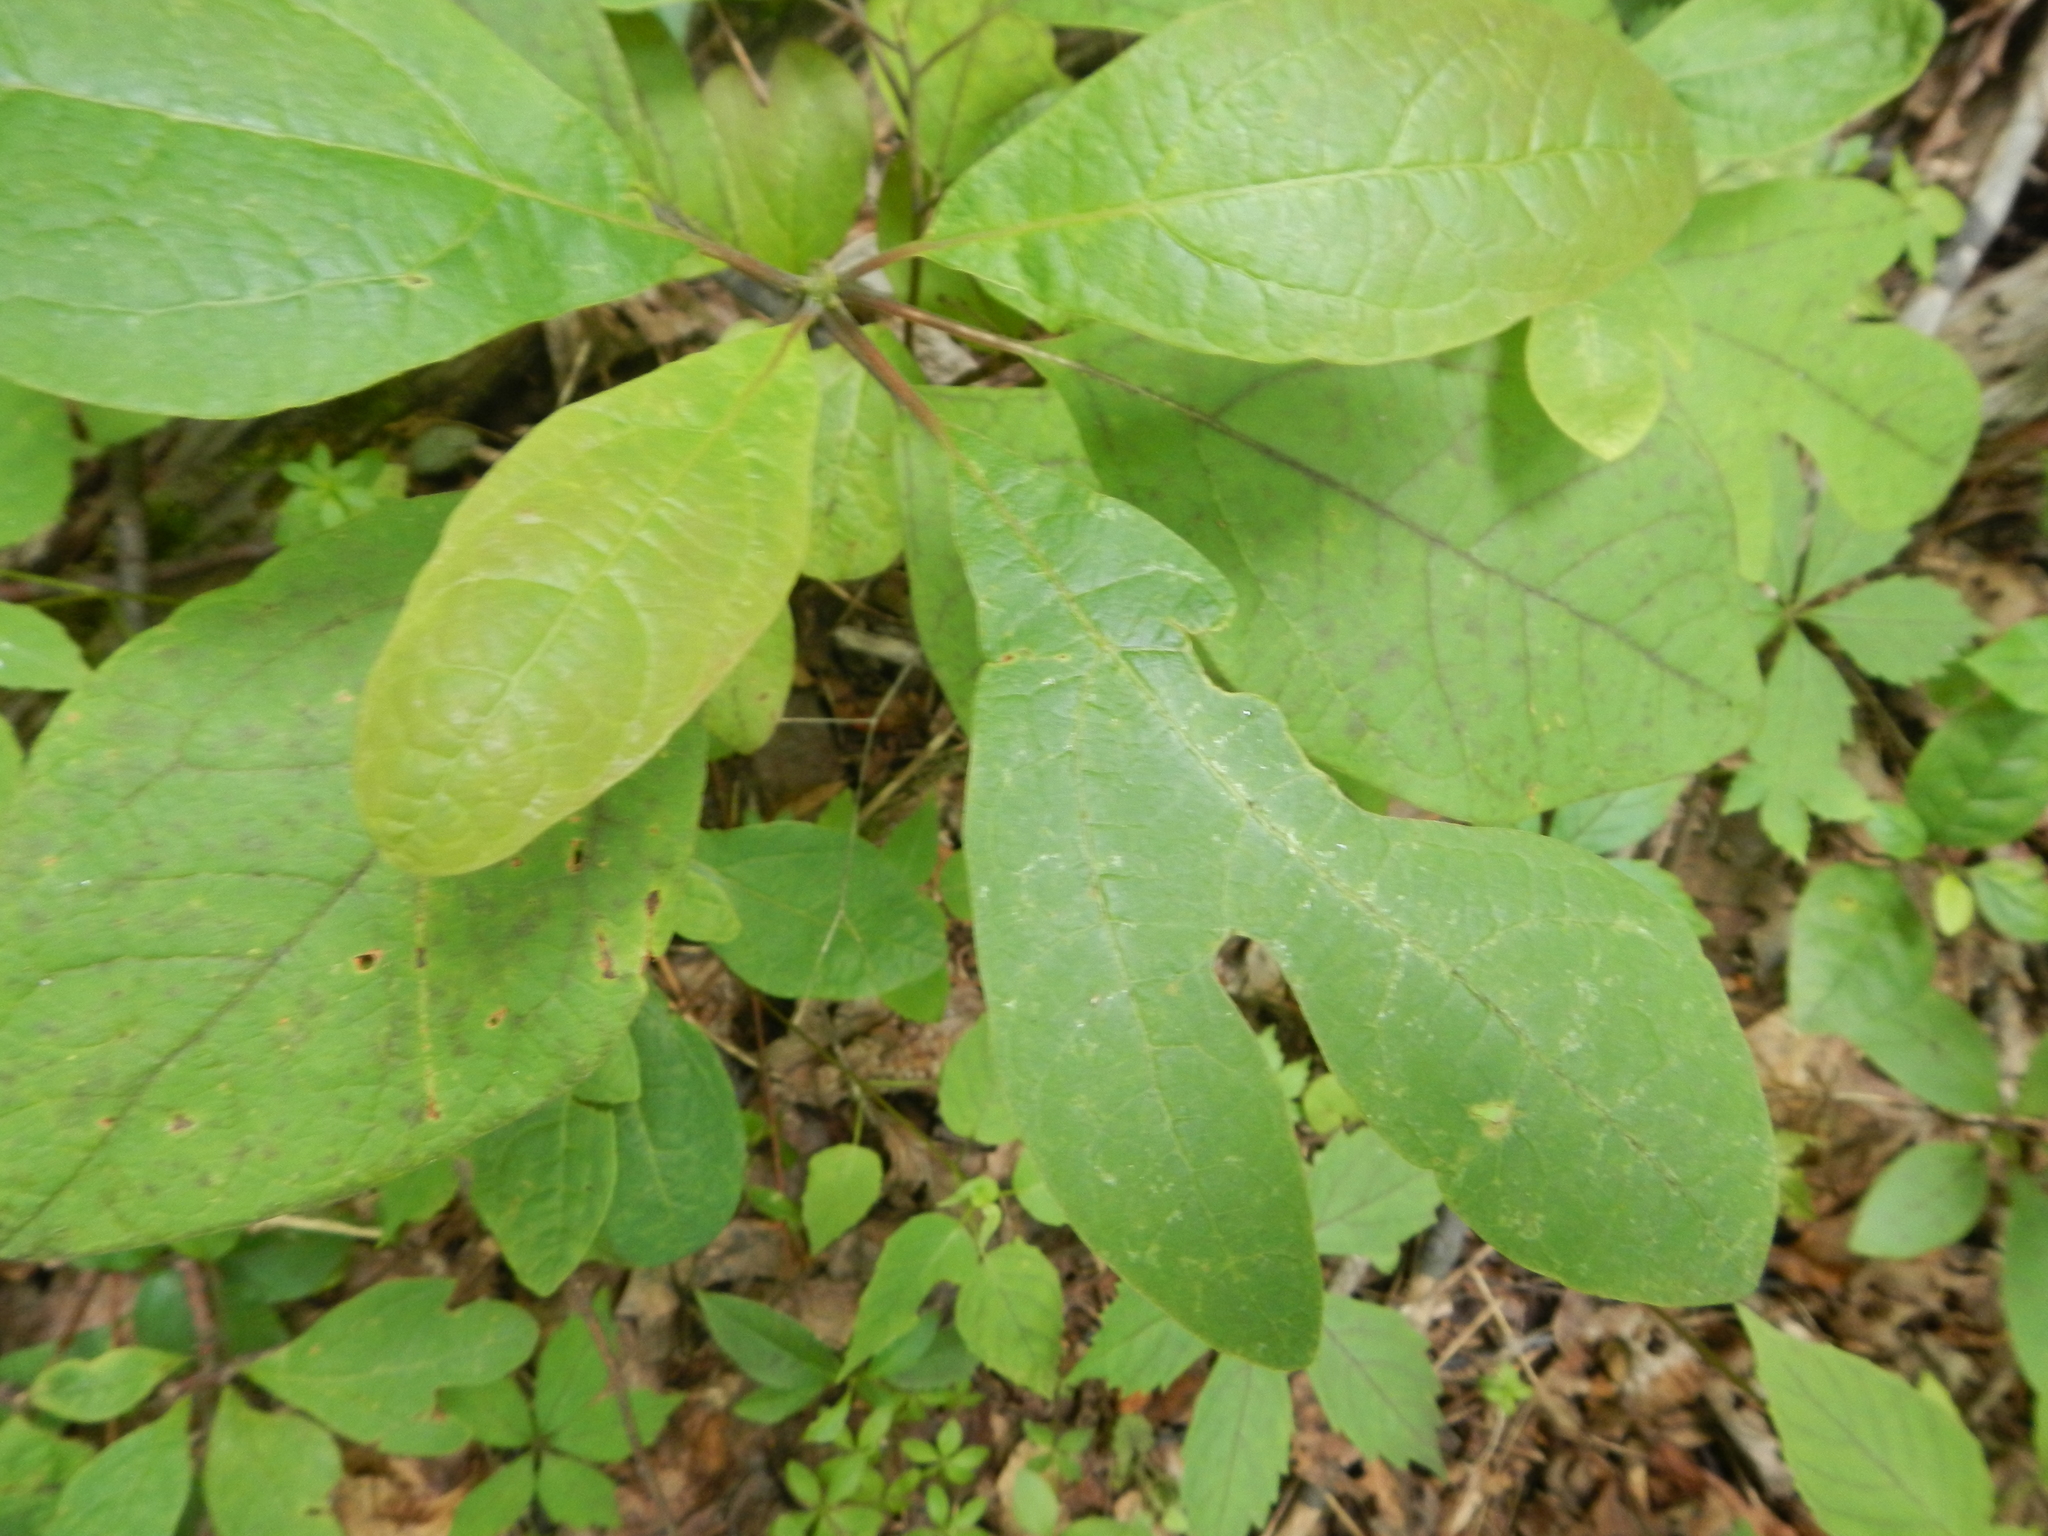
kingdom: Plantae
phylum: Tracheophyta
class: Magnoliopsida
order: Laurales
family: Lauraceae
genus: Sassafras
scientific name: Sassafras albidum
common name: Sassafras
